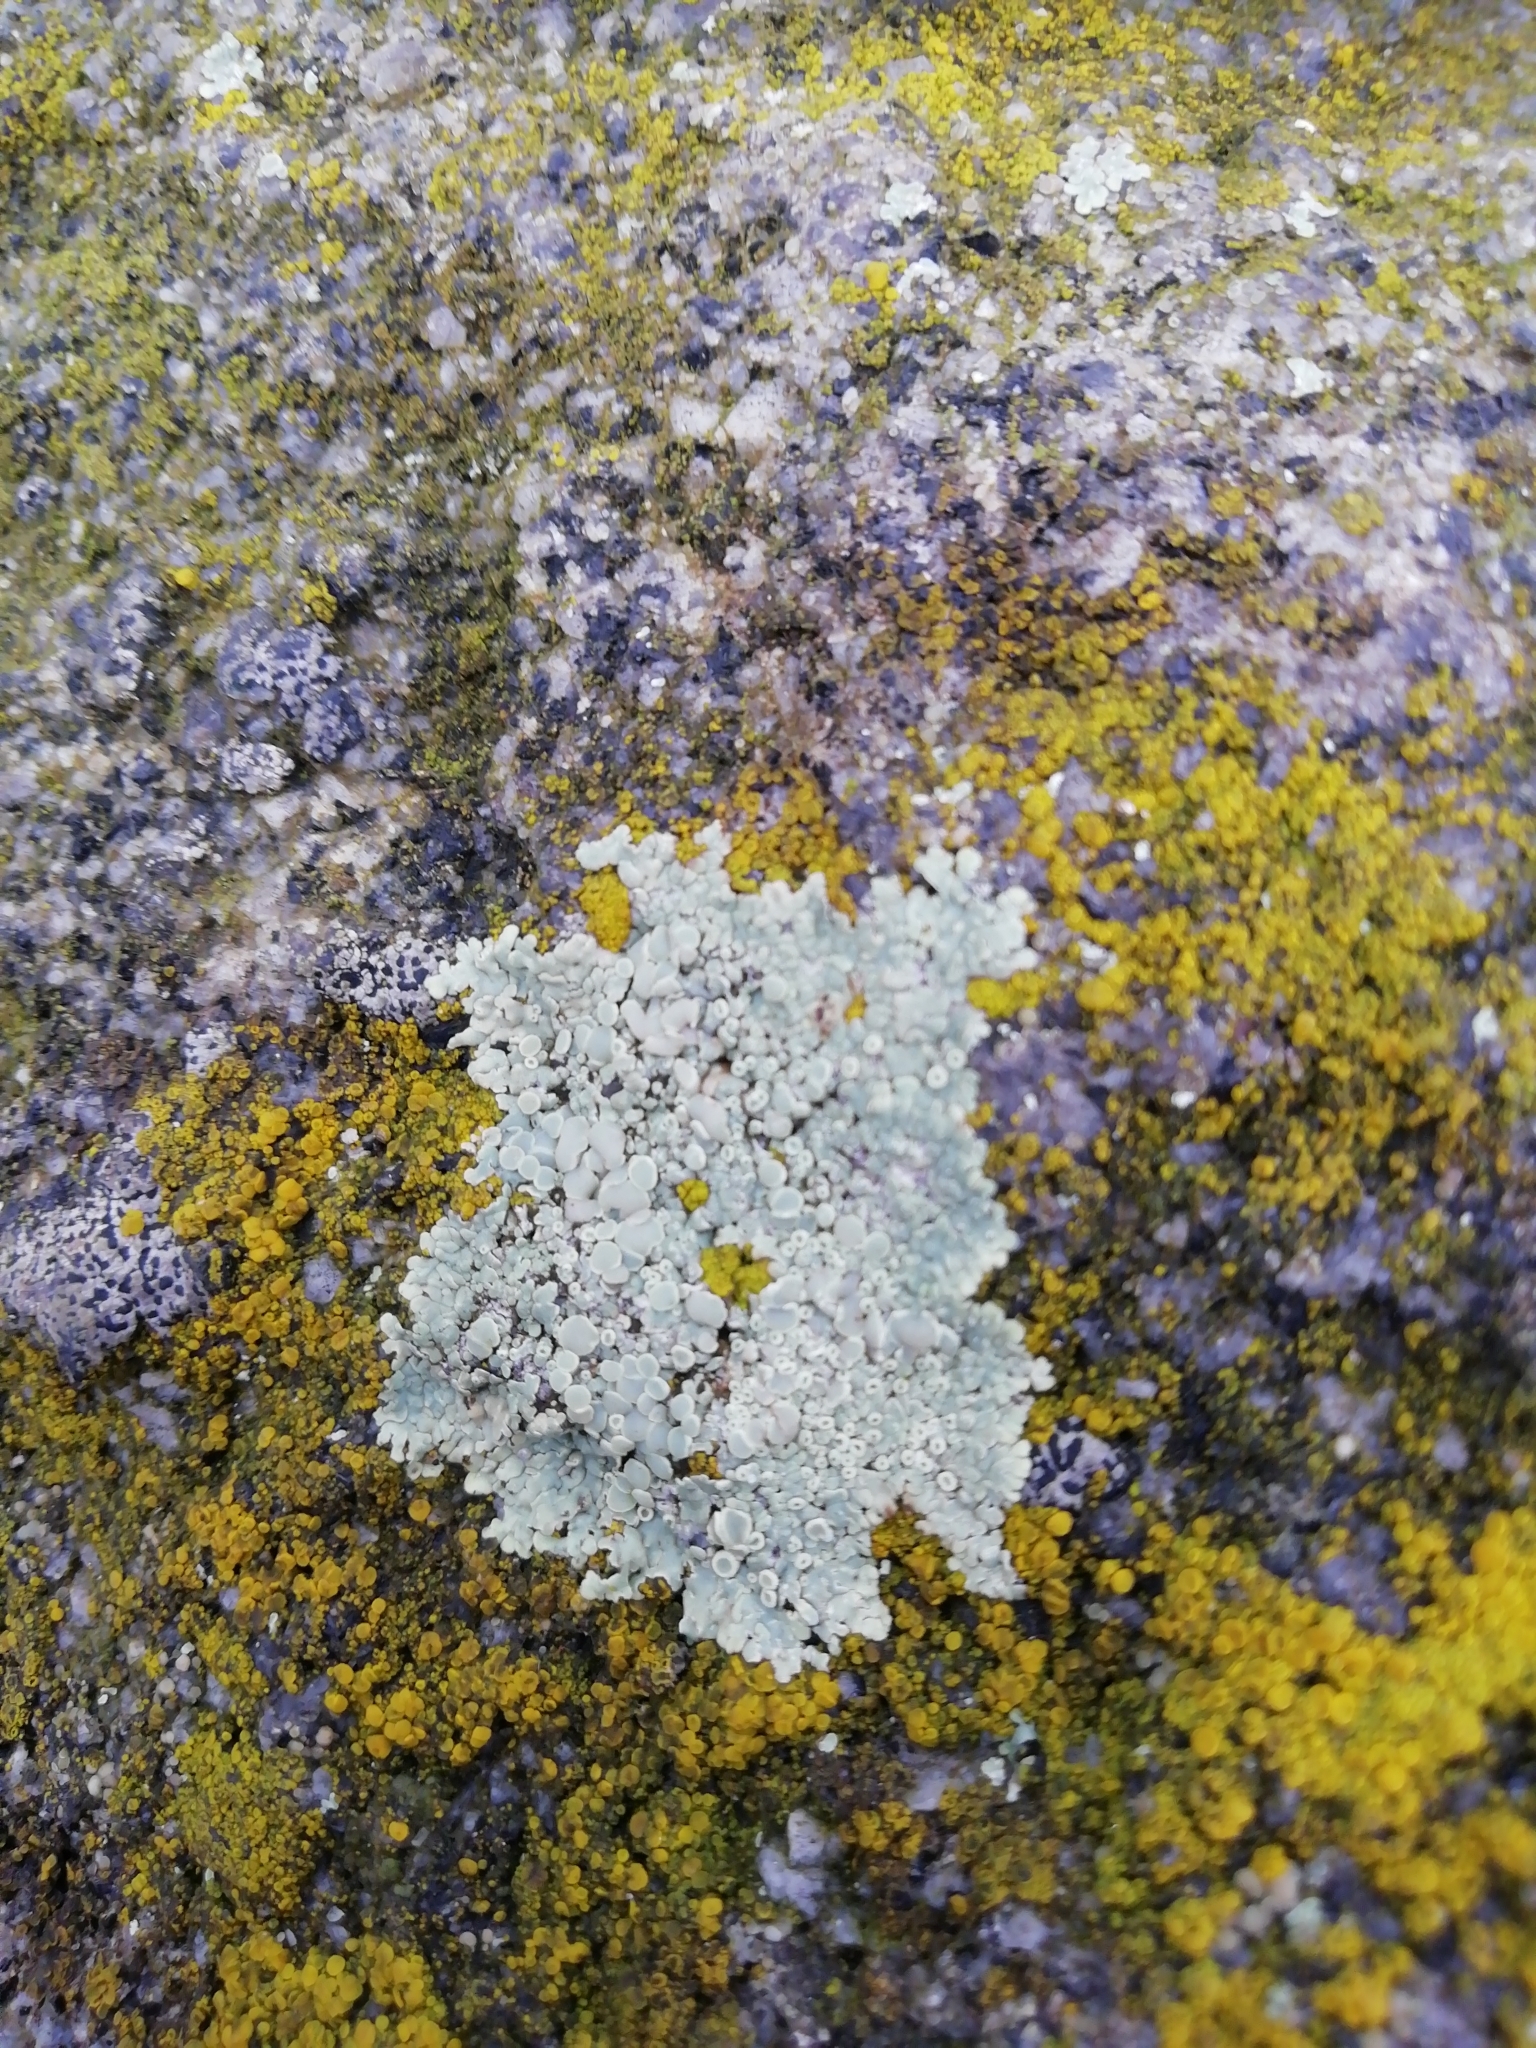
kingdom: Fungi
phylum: Ascomycota
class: Lecanoromycetes
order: Lecanorales
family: Lecanoraceae
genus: Protoparmeliopsis
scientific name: Protoparmeliopsis muralis
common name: Stonewall rim lichen
